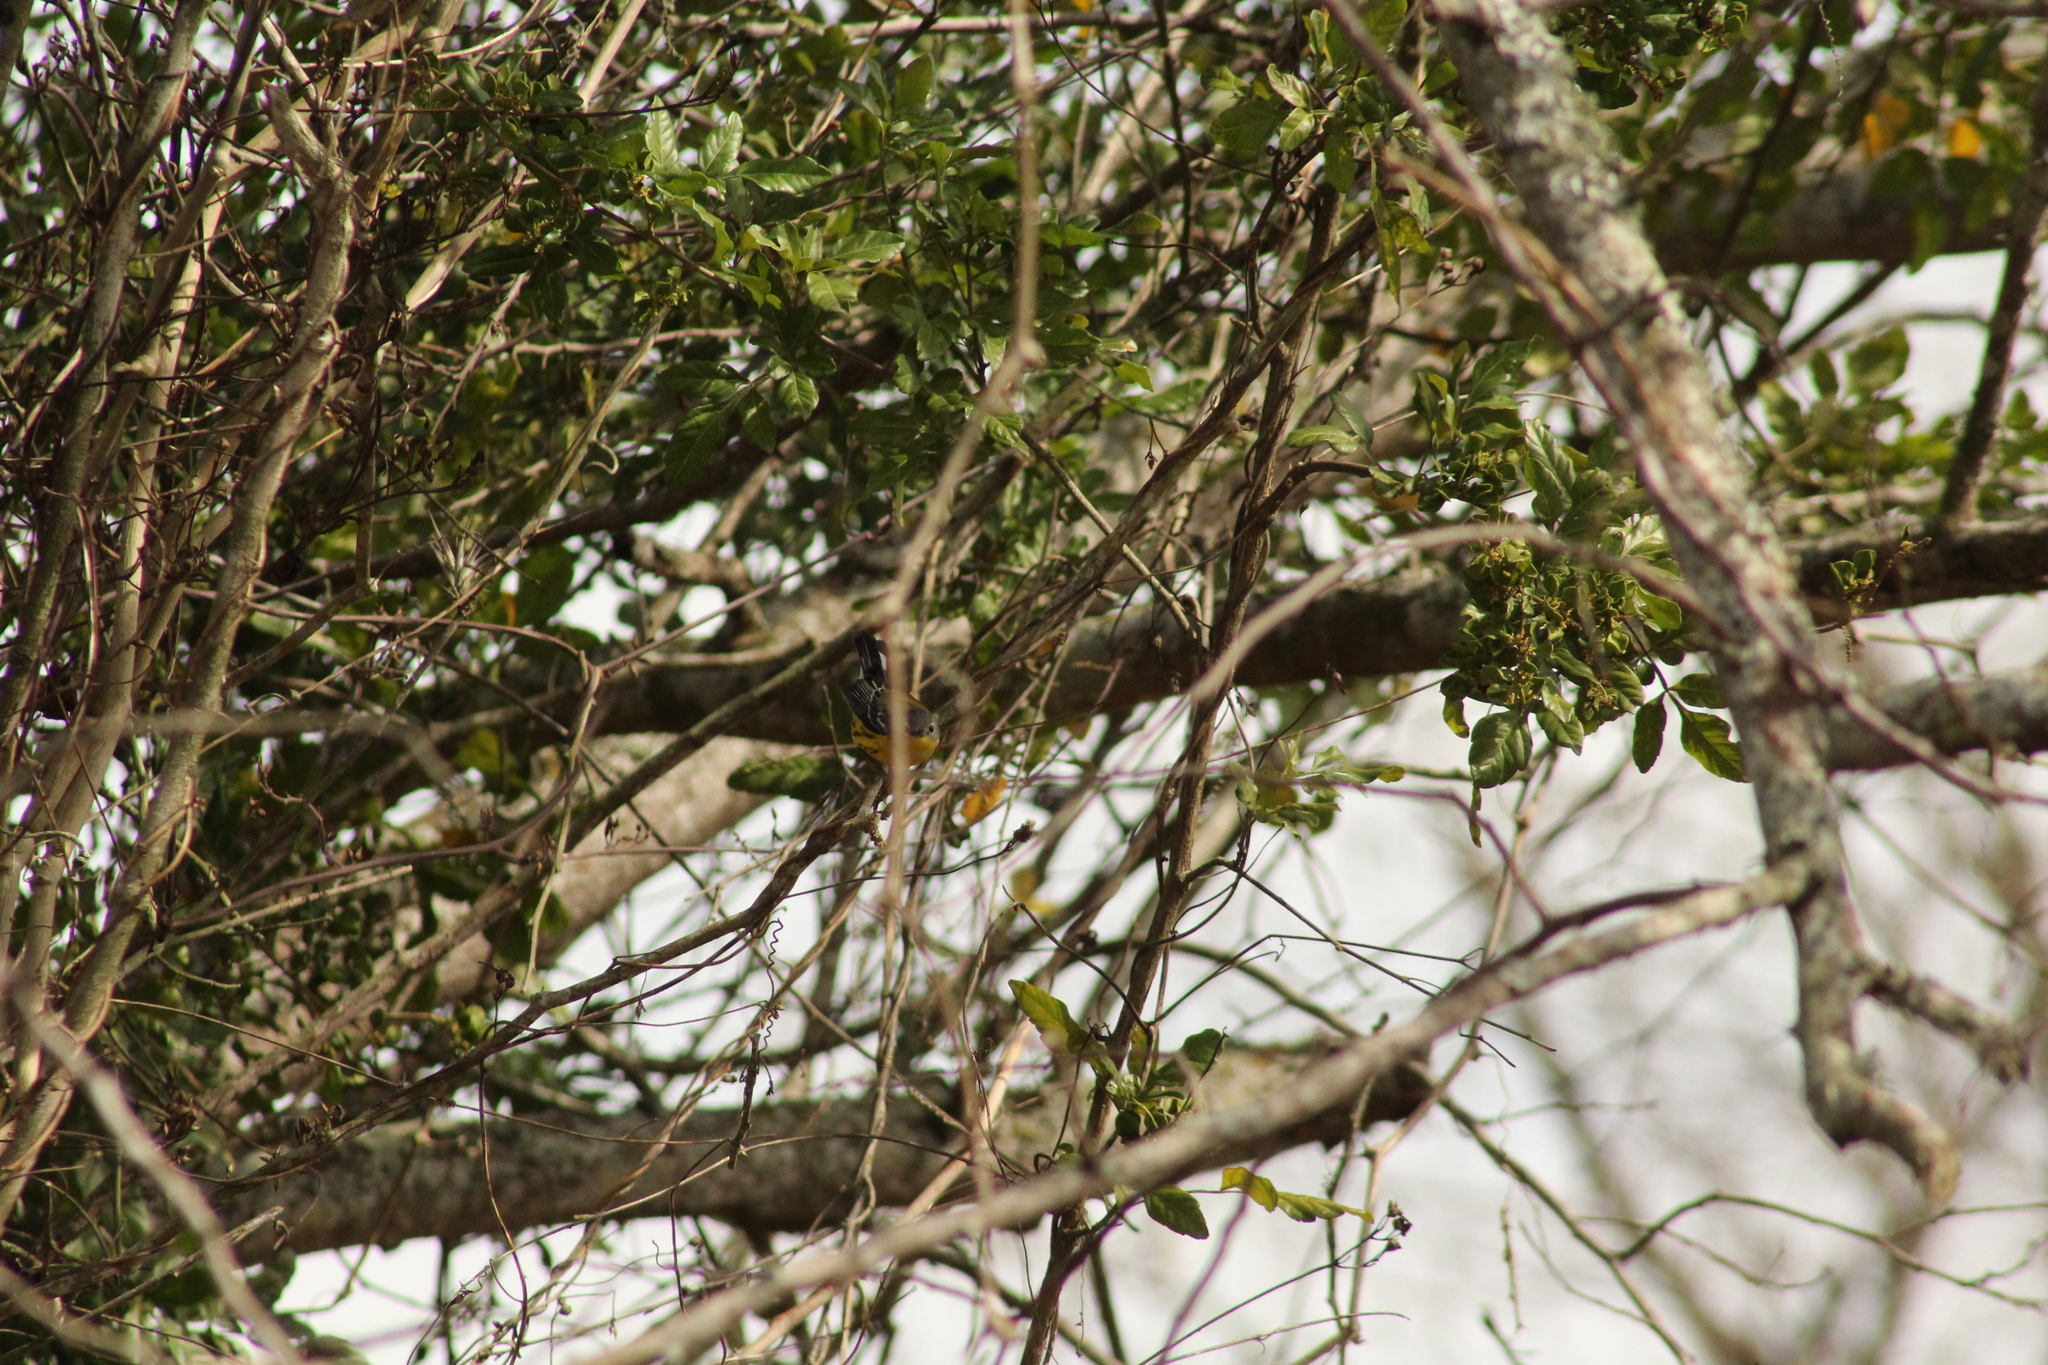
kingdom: Animalia
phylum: Chordata
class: Aves
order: Passeriformes
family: Parulidae
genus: Setophaga
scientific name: Setophaga magnolia
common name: Magnolia warbler
